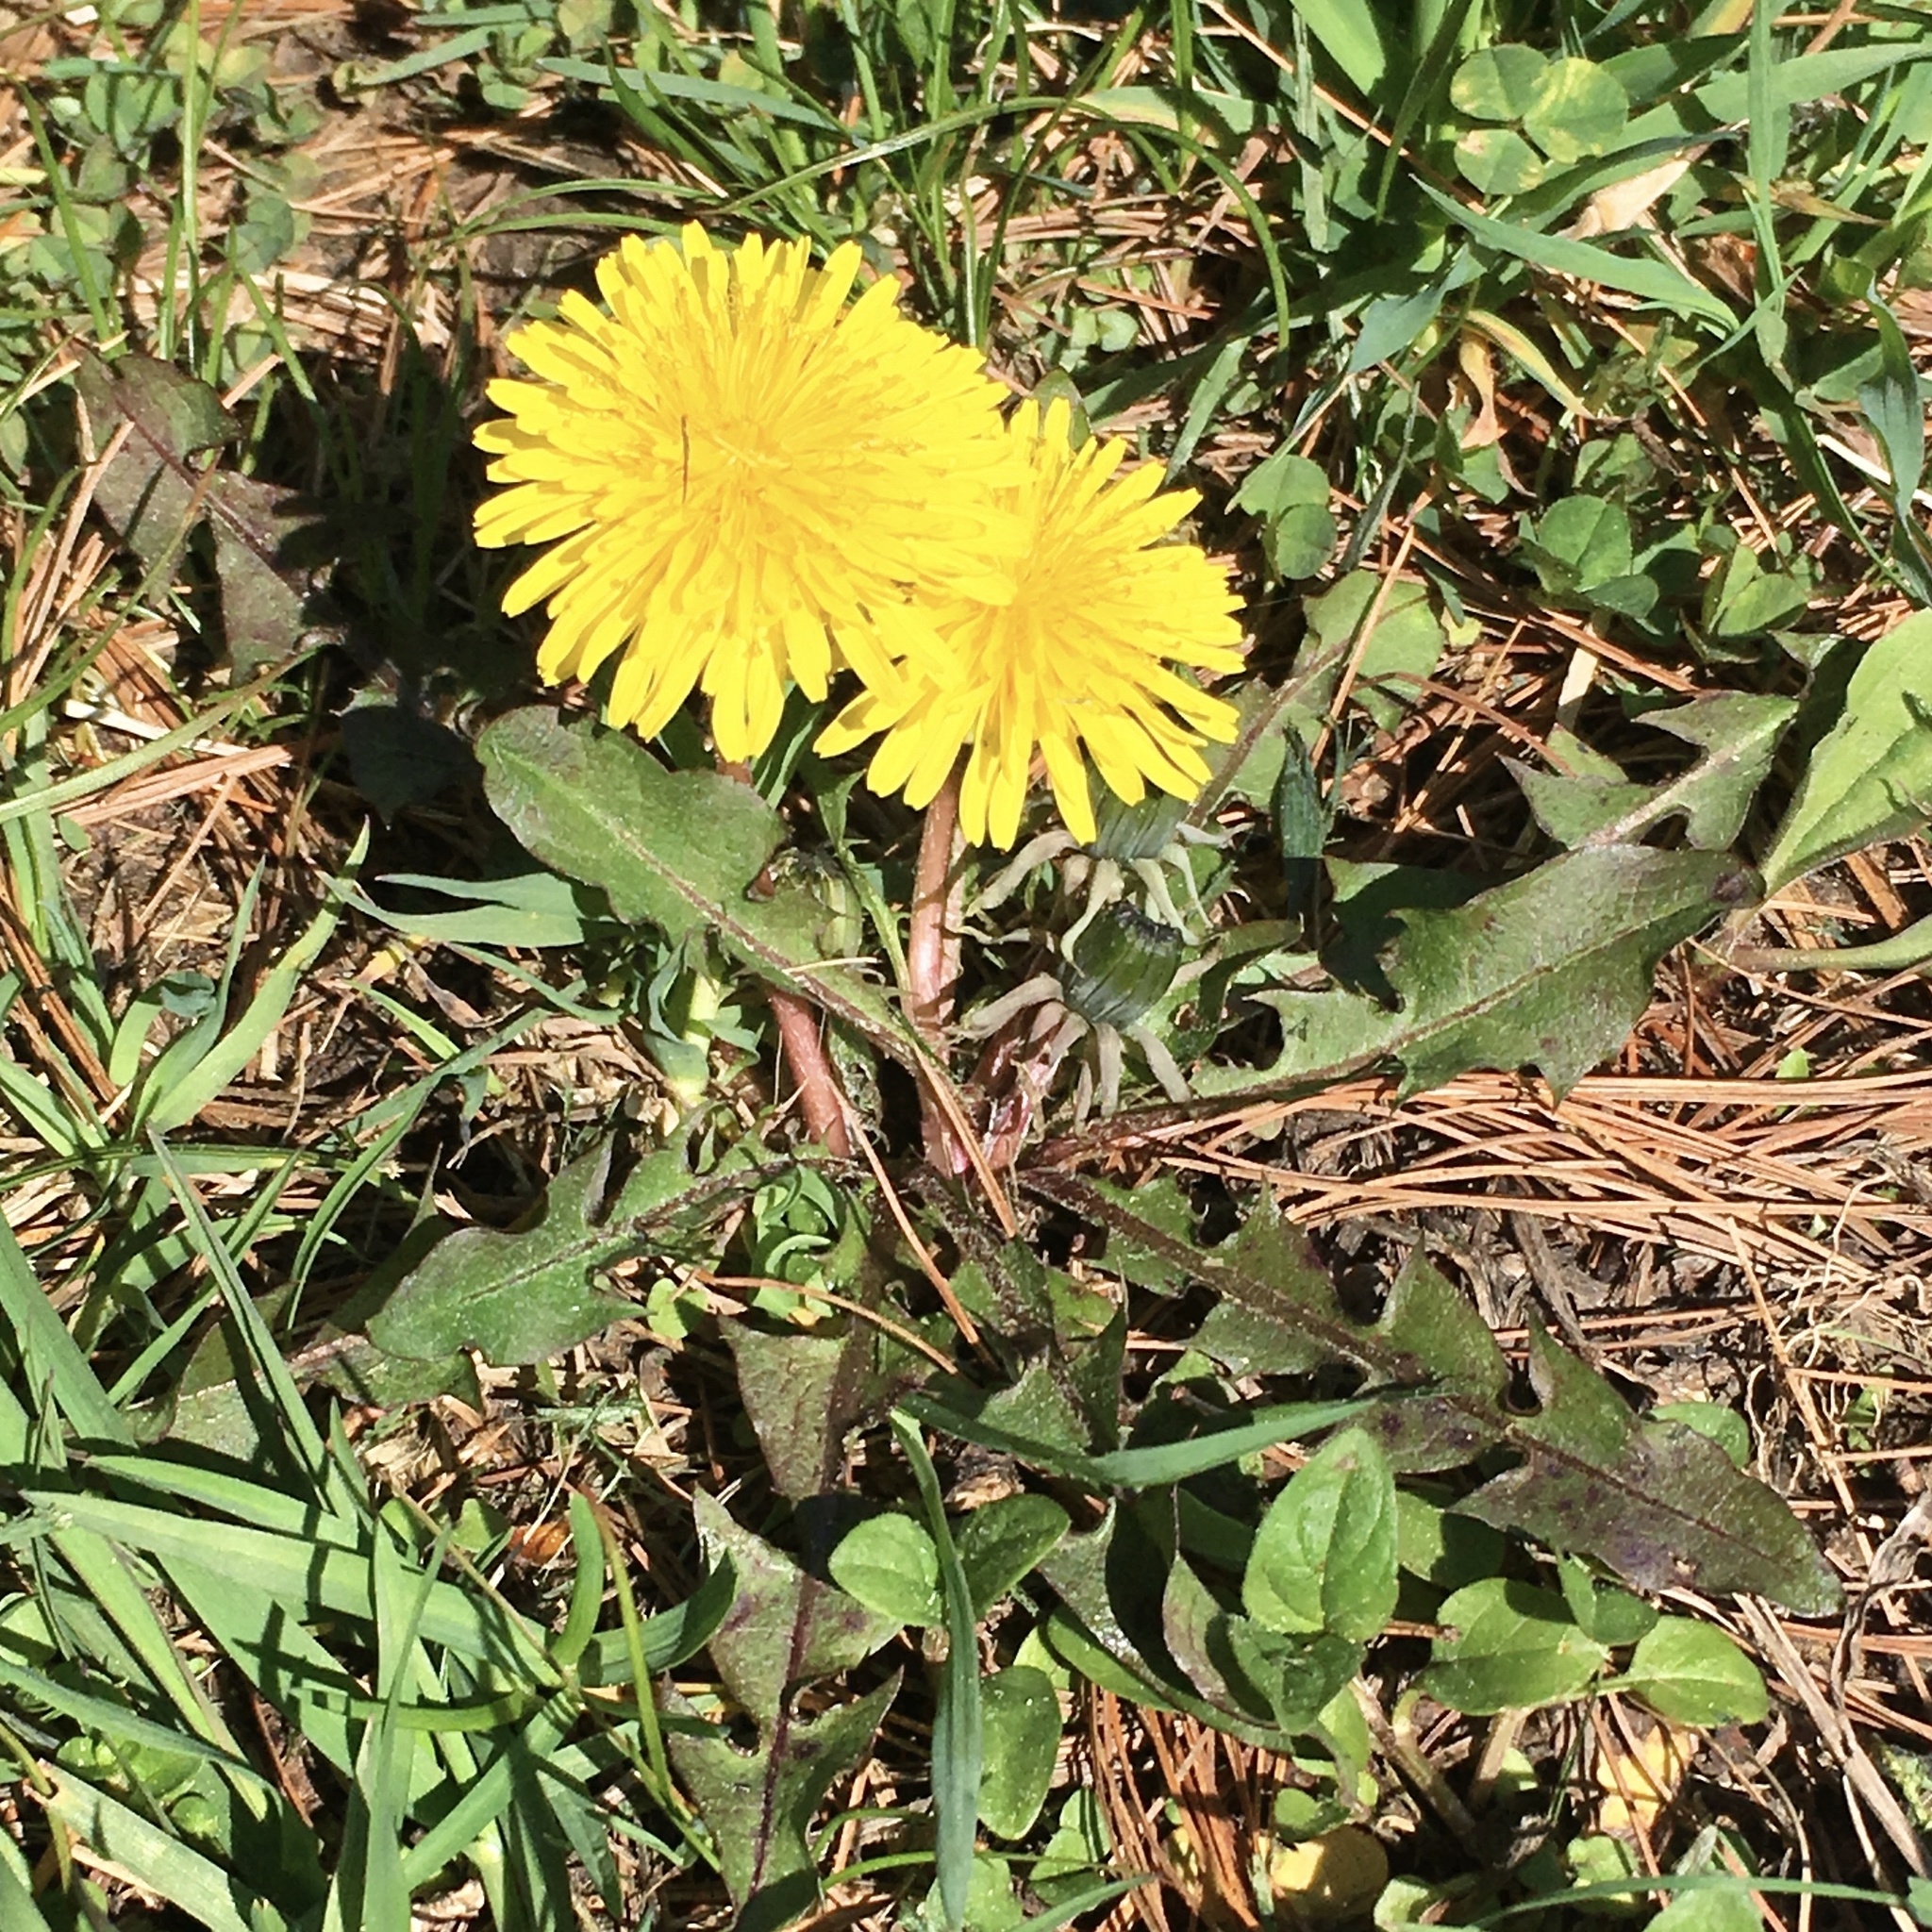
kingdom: Plantae
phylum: Tracheophyta
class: Magnoliopsida
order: Asterales
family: Asteraceae
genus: Taraxacum
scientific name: Taraxacum officinale
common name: Common dandelion
